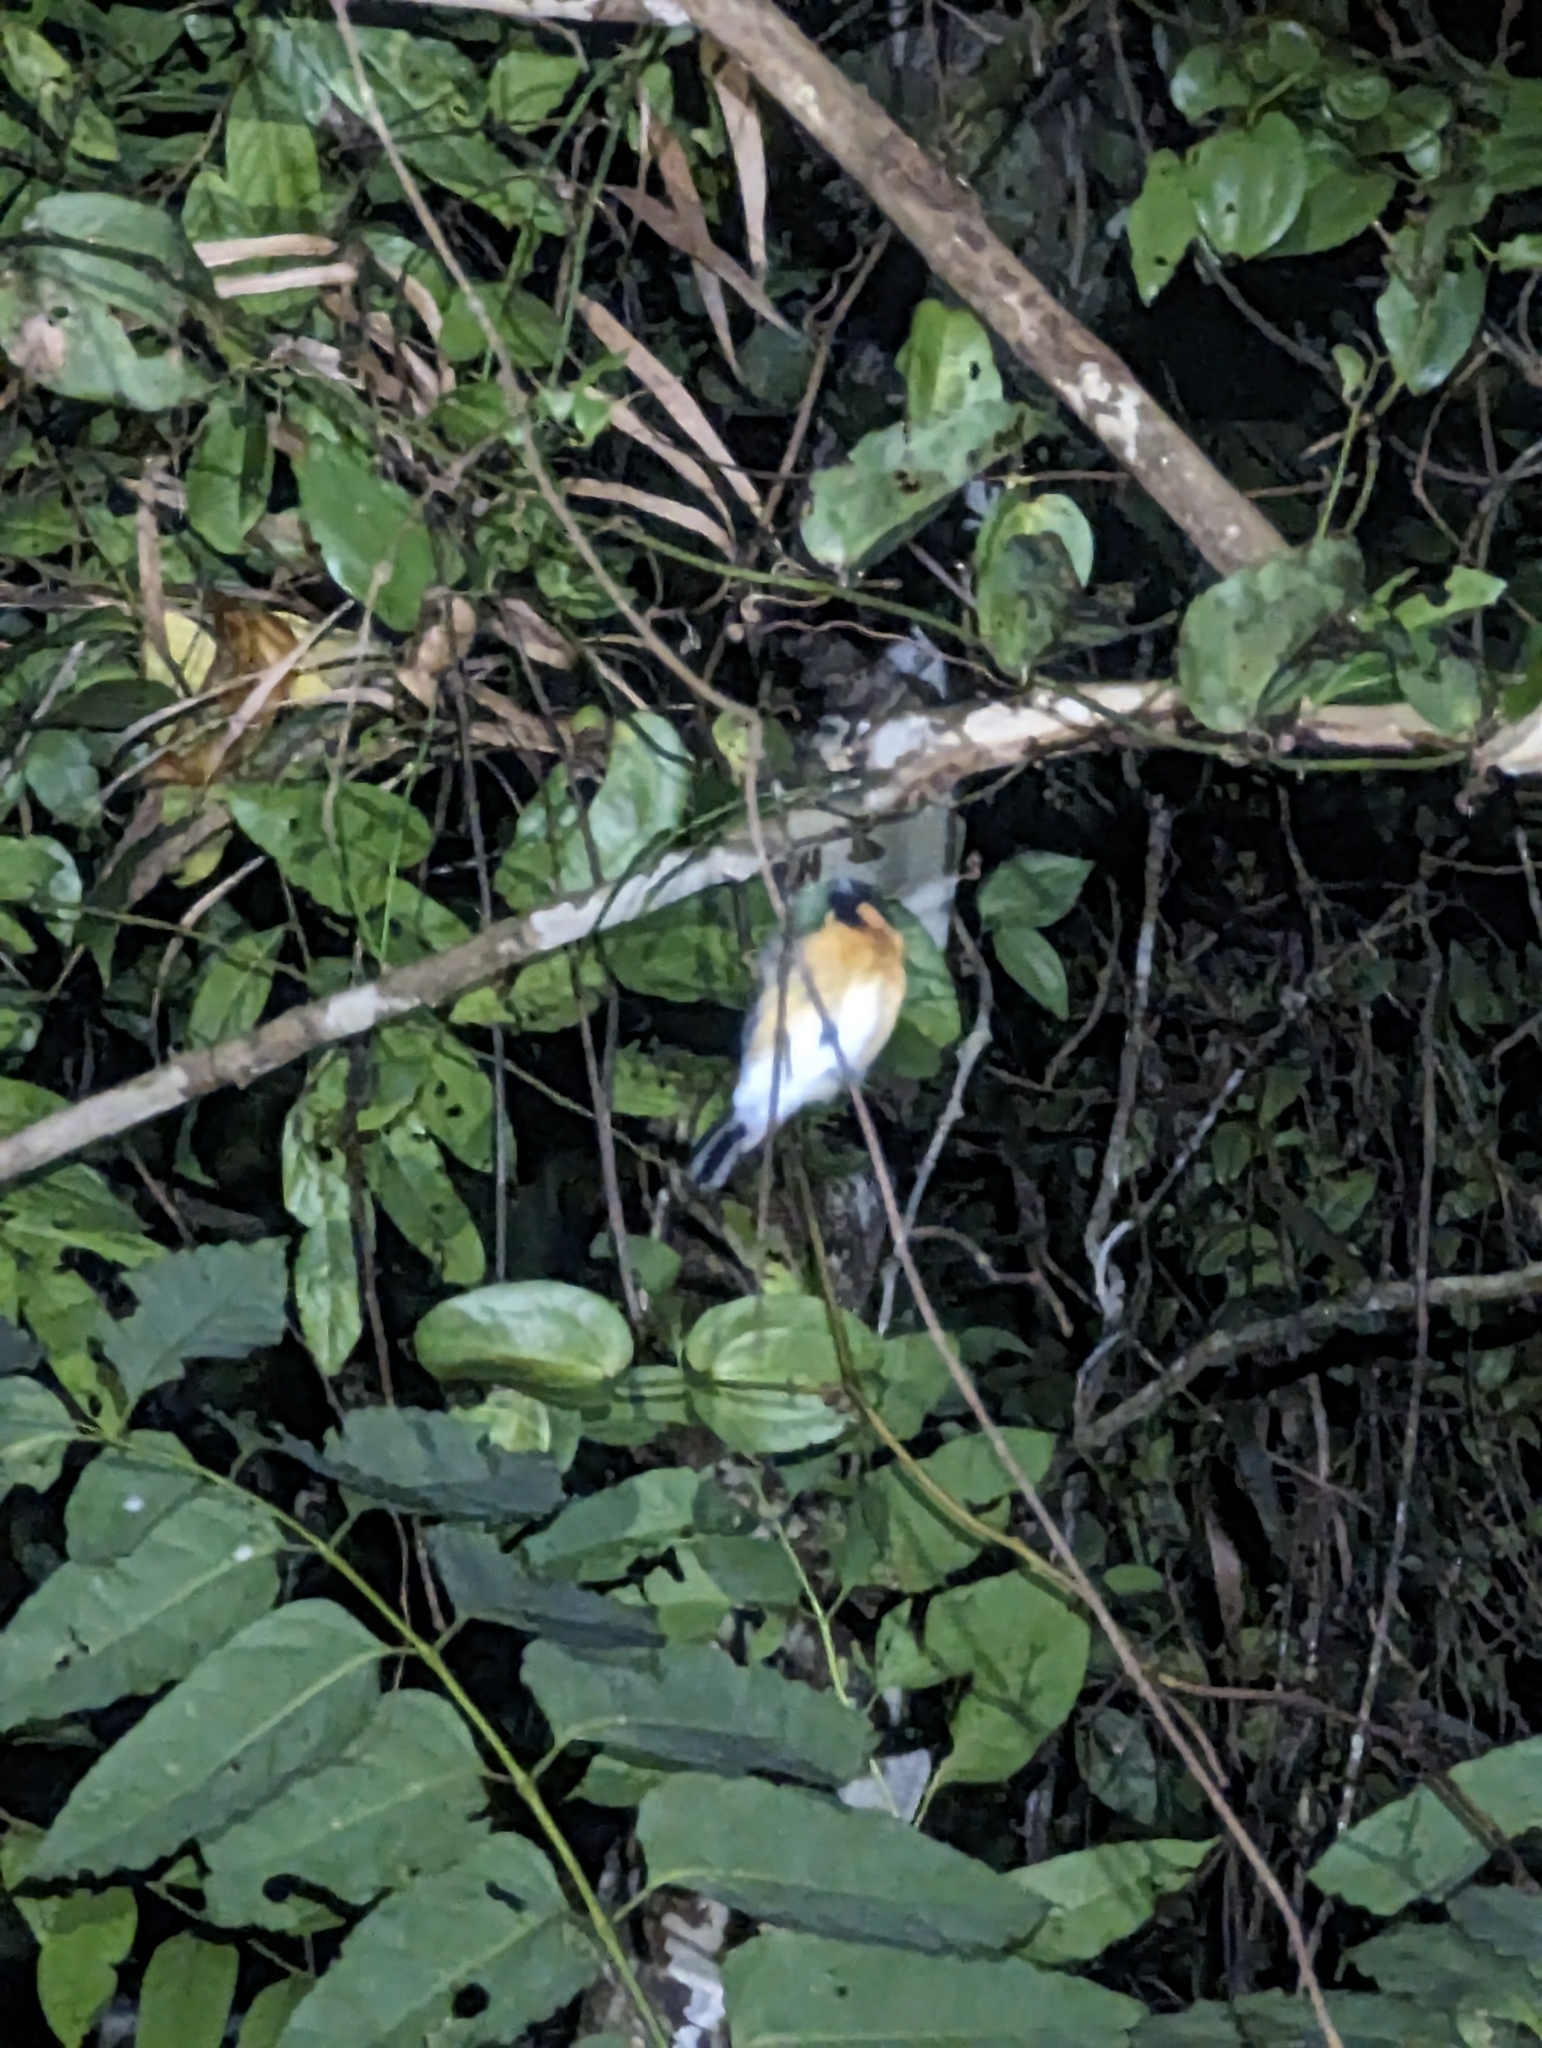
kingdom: Animalia
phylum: Chordata
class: Aves
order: Passeriformes
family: Monarchidae
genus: Symposiachrus
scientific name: Symposiachrus trivirgatus
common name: Spectacled monarch
